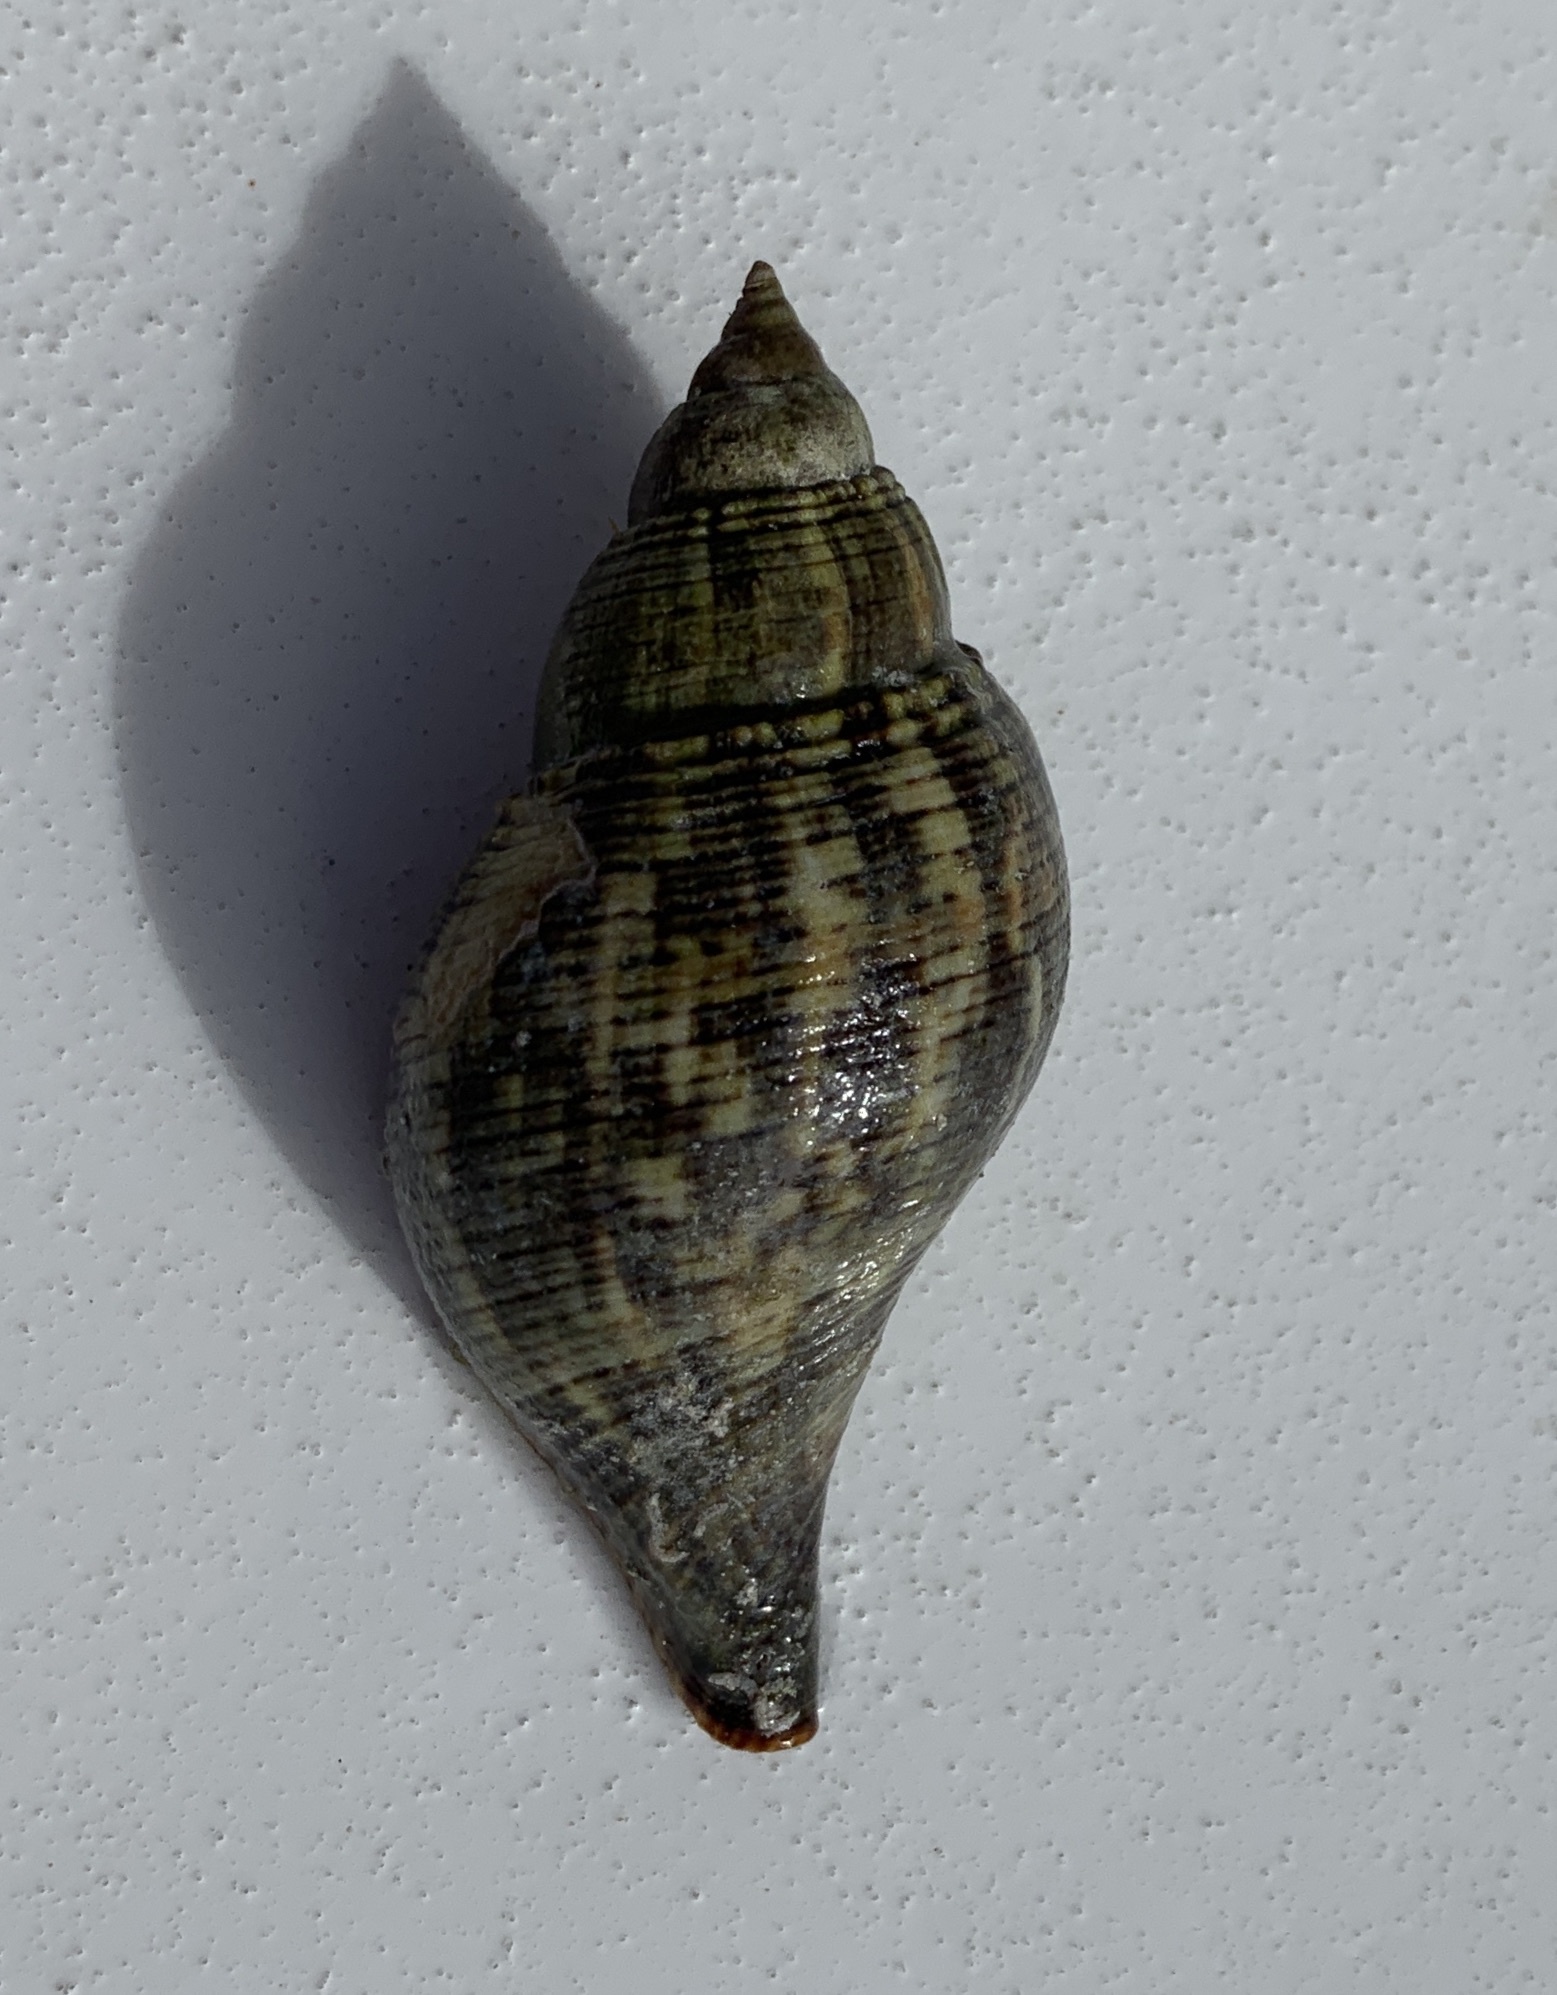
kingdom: Animalia
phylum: Mollusca
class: Gastropoda
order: Neogastropoda
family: Fasciolariidae
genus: Fasciolaria
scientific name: Fasciolaria tulipa
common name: True tulip
